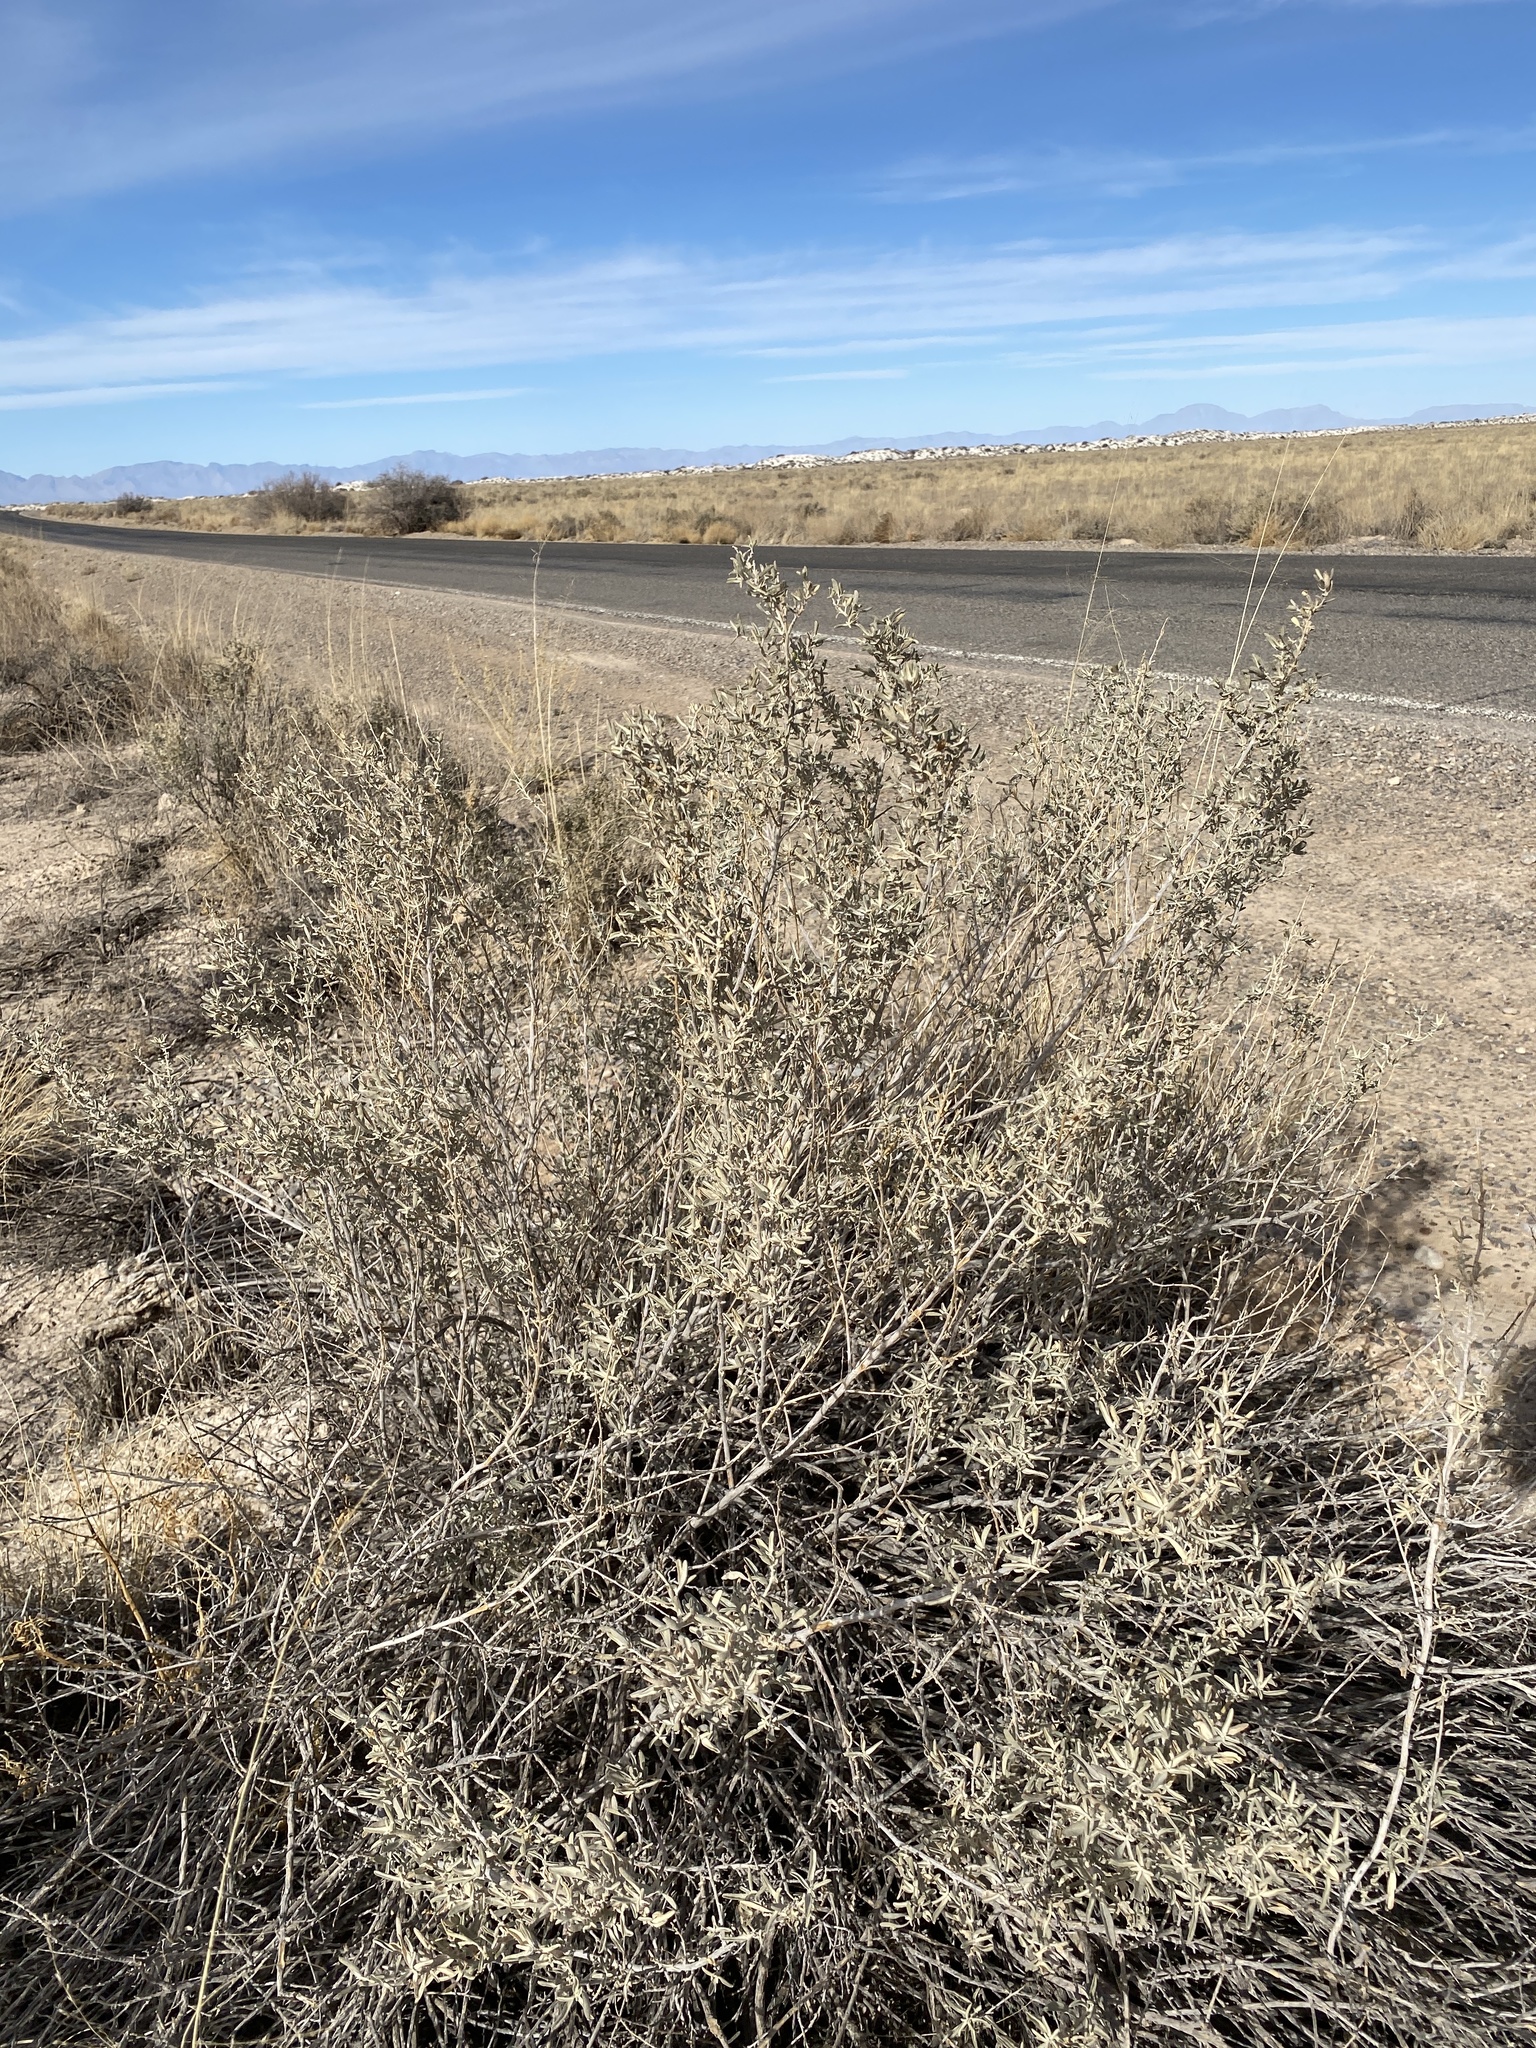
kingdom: Plantae
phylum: Tracheophyta
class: Magnoliopsida
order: Caryophyllales
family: Amaranthaceae
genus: Atriplex
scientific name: Atriplex canescens
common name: Four-wing saltbush
